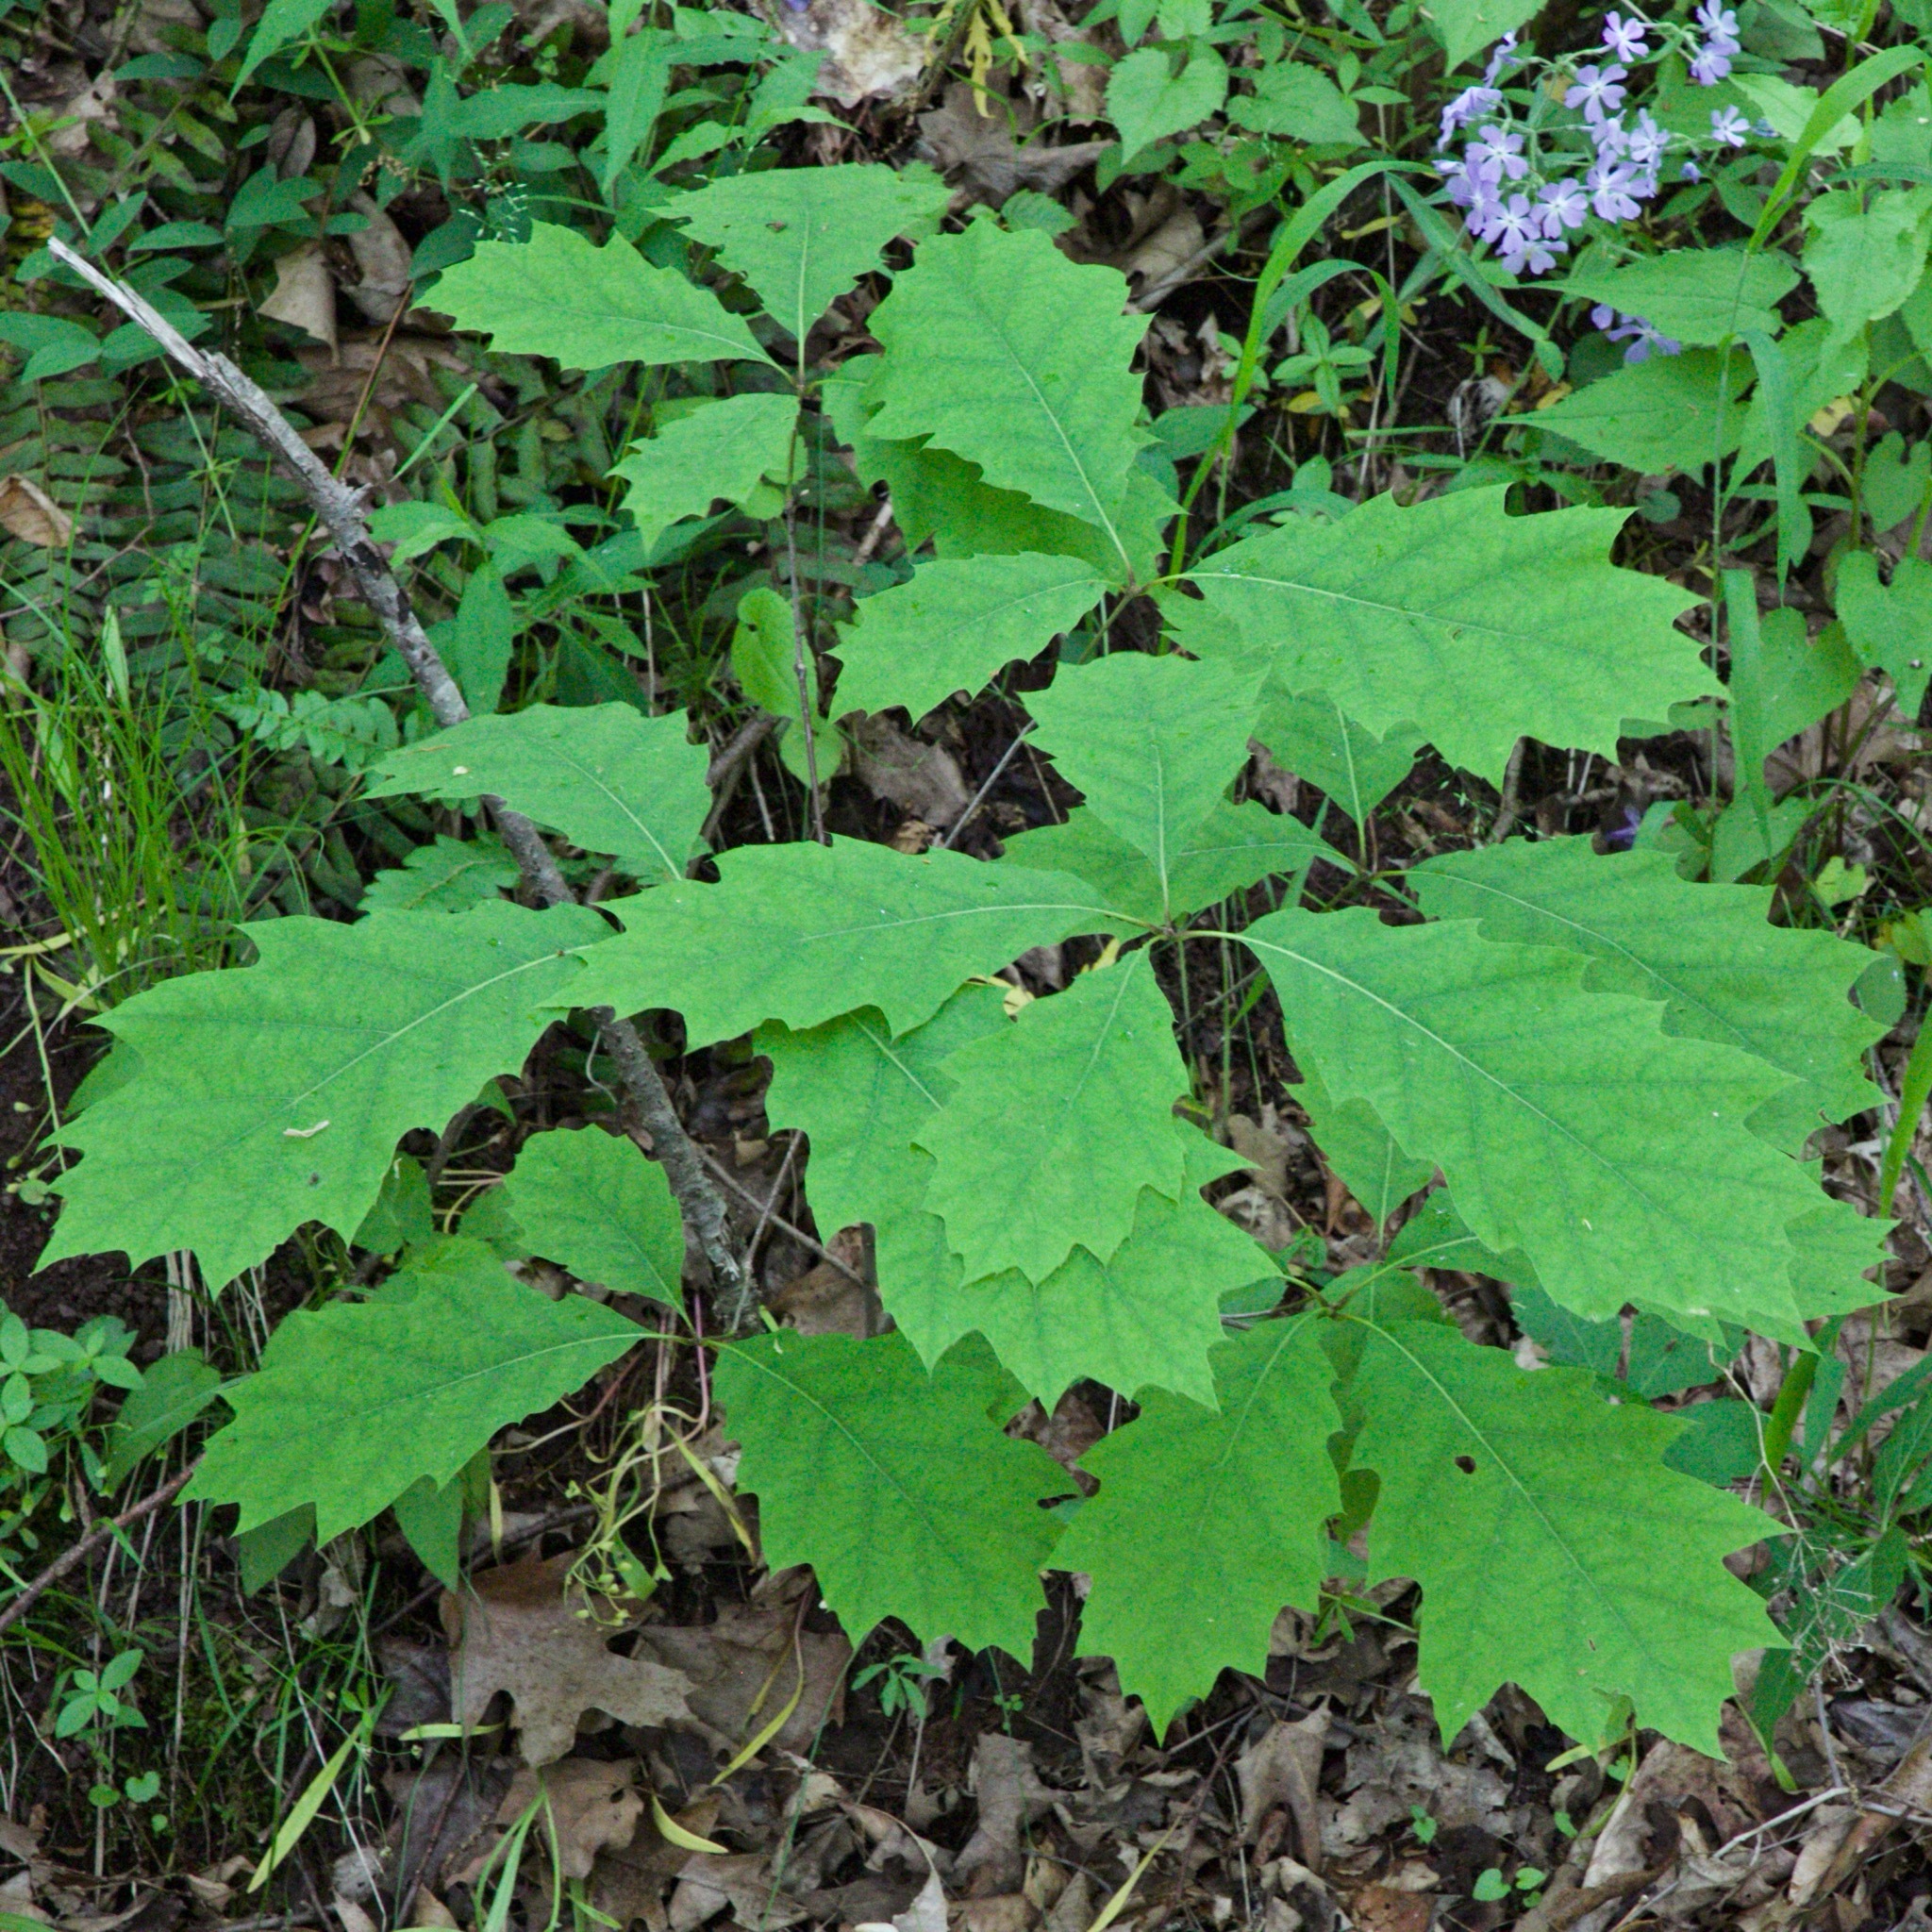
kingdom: Plantae
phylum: Tracheophyta
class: Magnoliopsida
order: Fagales
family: Fagaceae
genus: Quercus
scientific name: Quercus rubra
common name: Red oak
